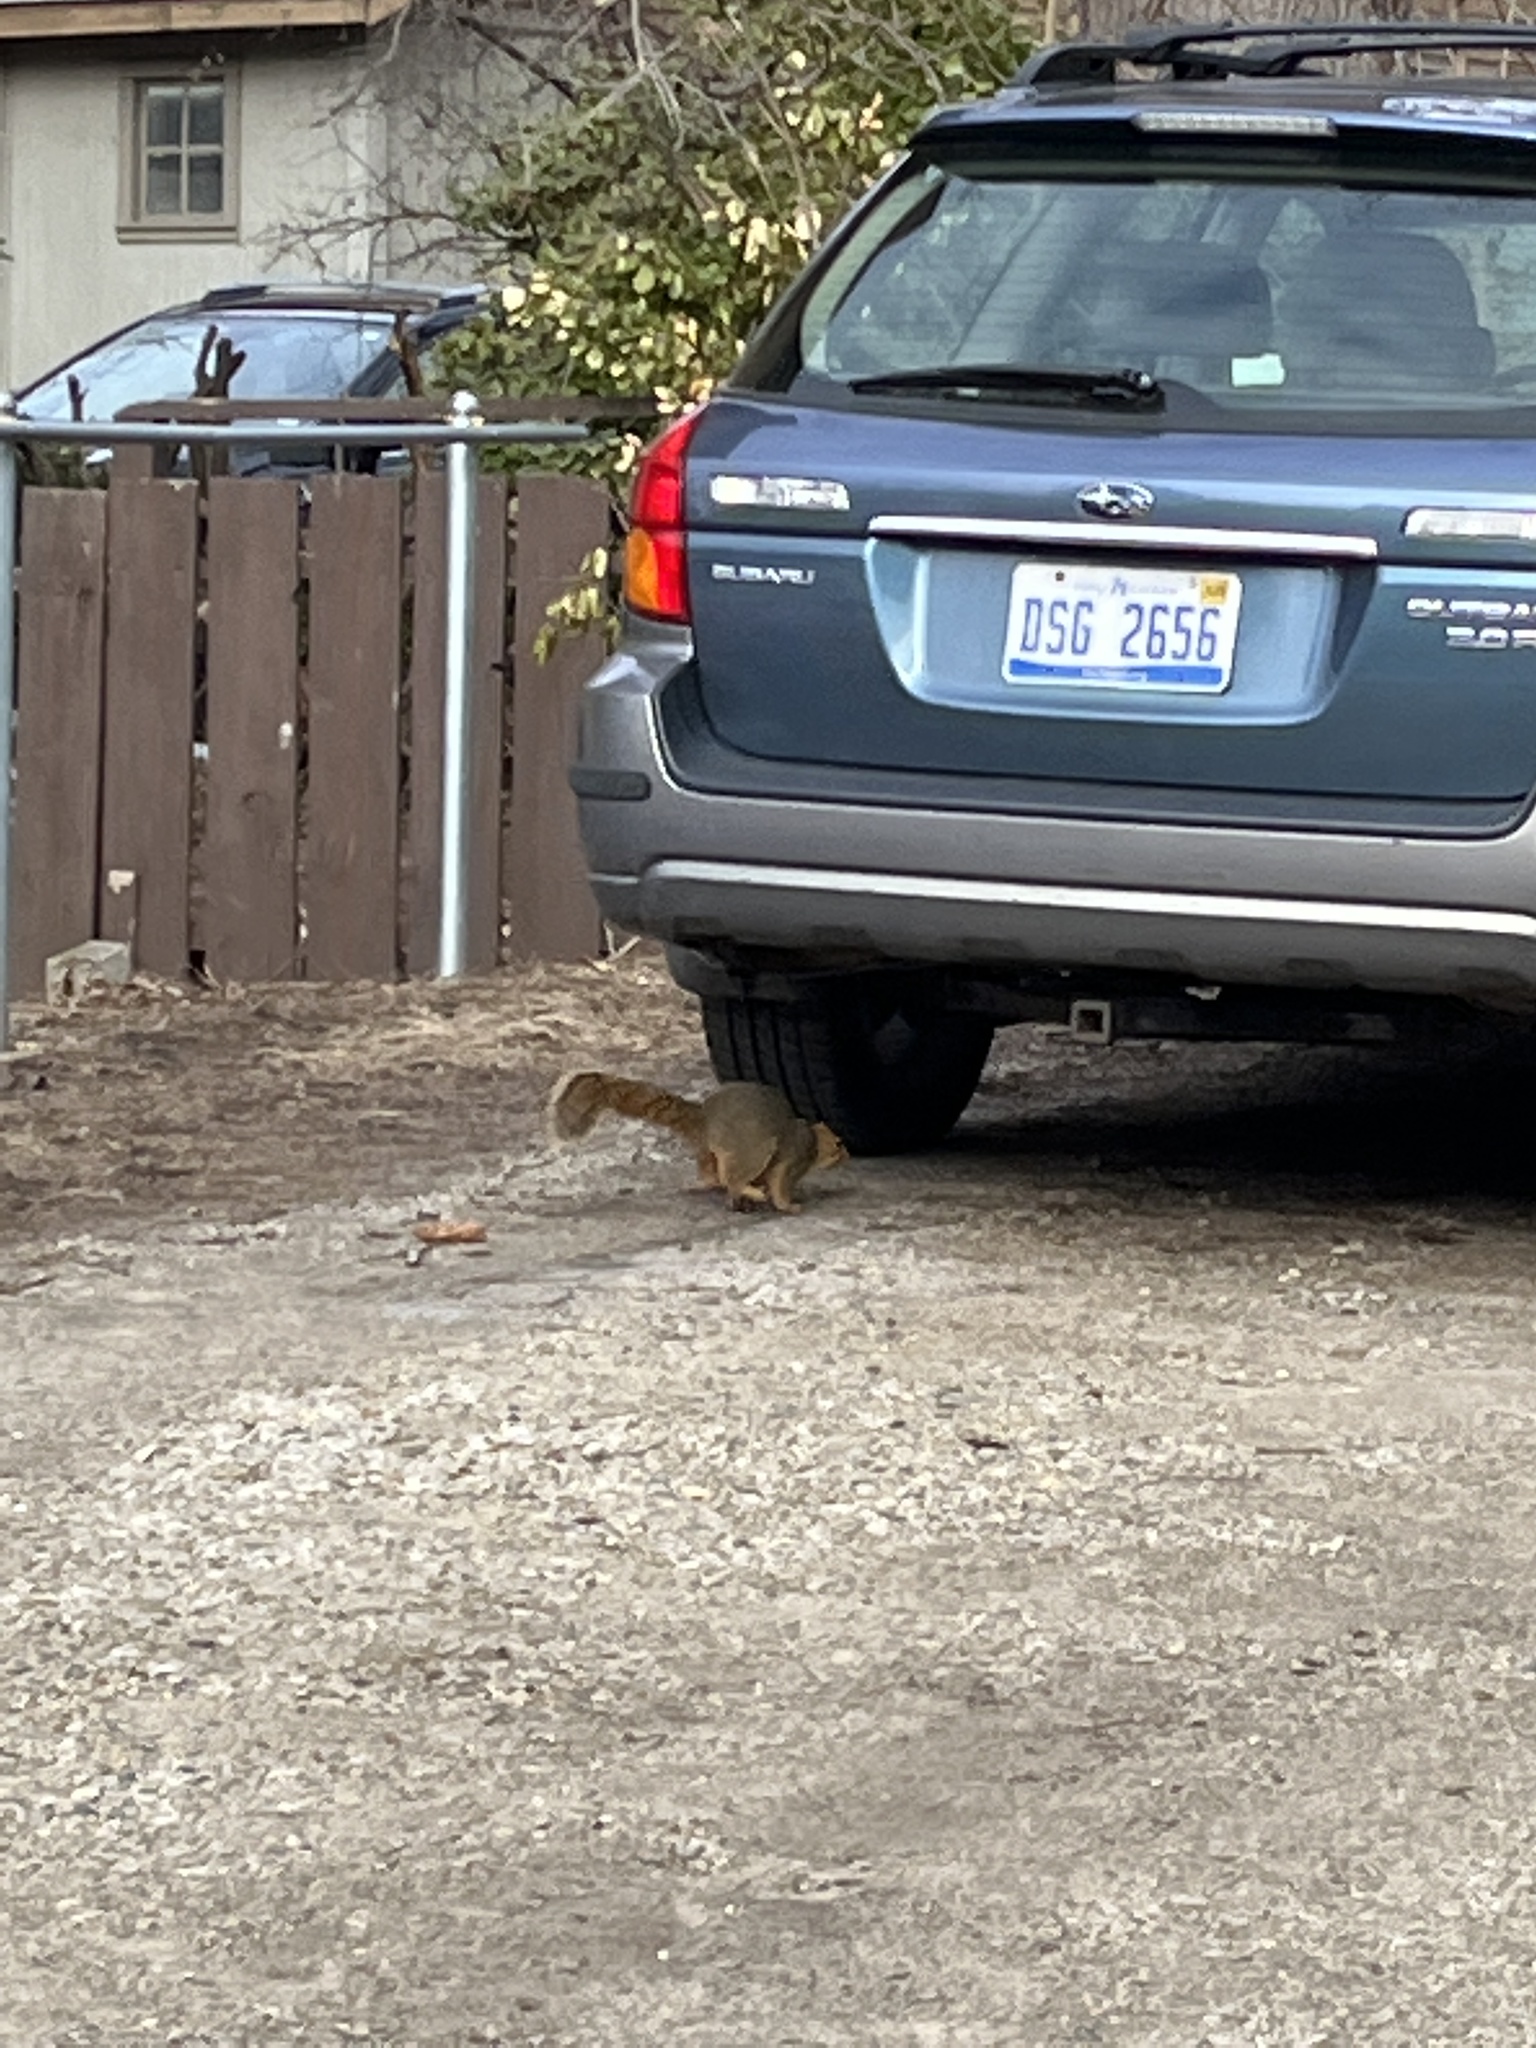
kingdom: Animalia
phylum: Chordata
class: Mammalia
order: Rodentia
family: Sciuridae
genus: Sciurus
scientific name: Sciurus niger
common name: Fox squirrel
